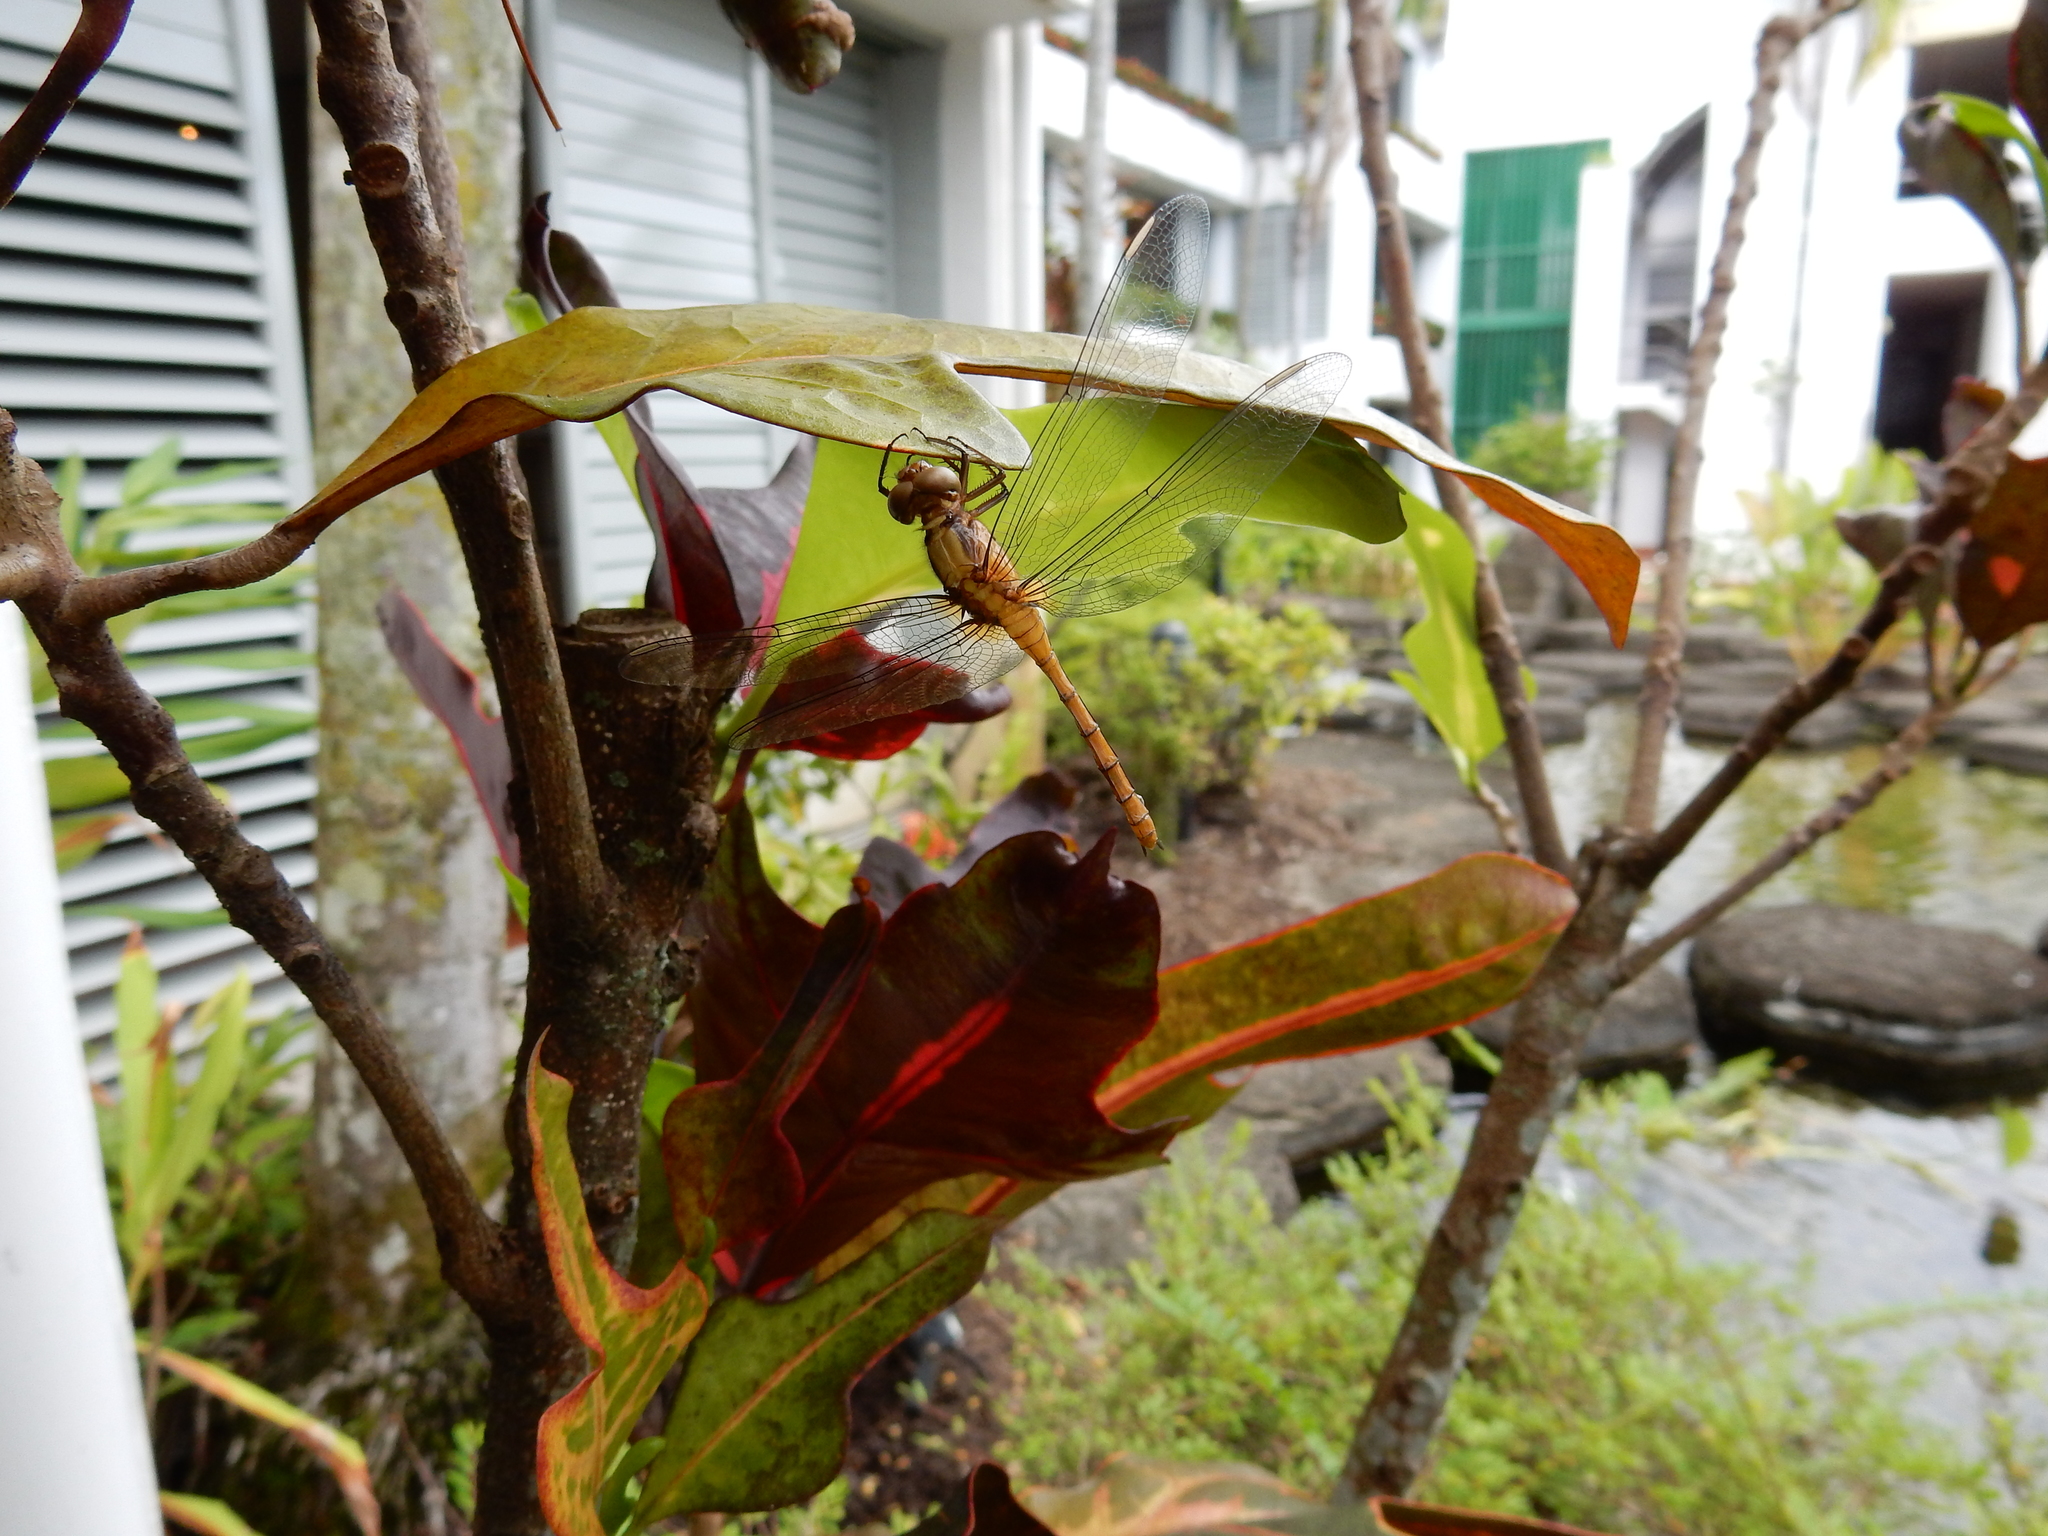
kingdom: Animalia
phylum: Arthropoda
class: Insecta
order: Odonata
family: Libellulidae
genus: Orthetrum
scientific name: Orthetrum villosovittatum
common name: Firery skimmer
